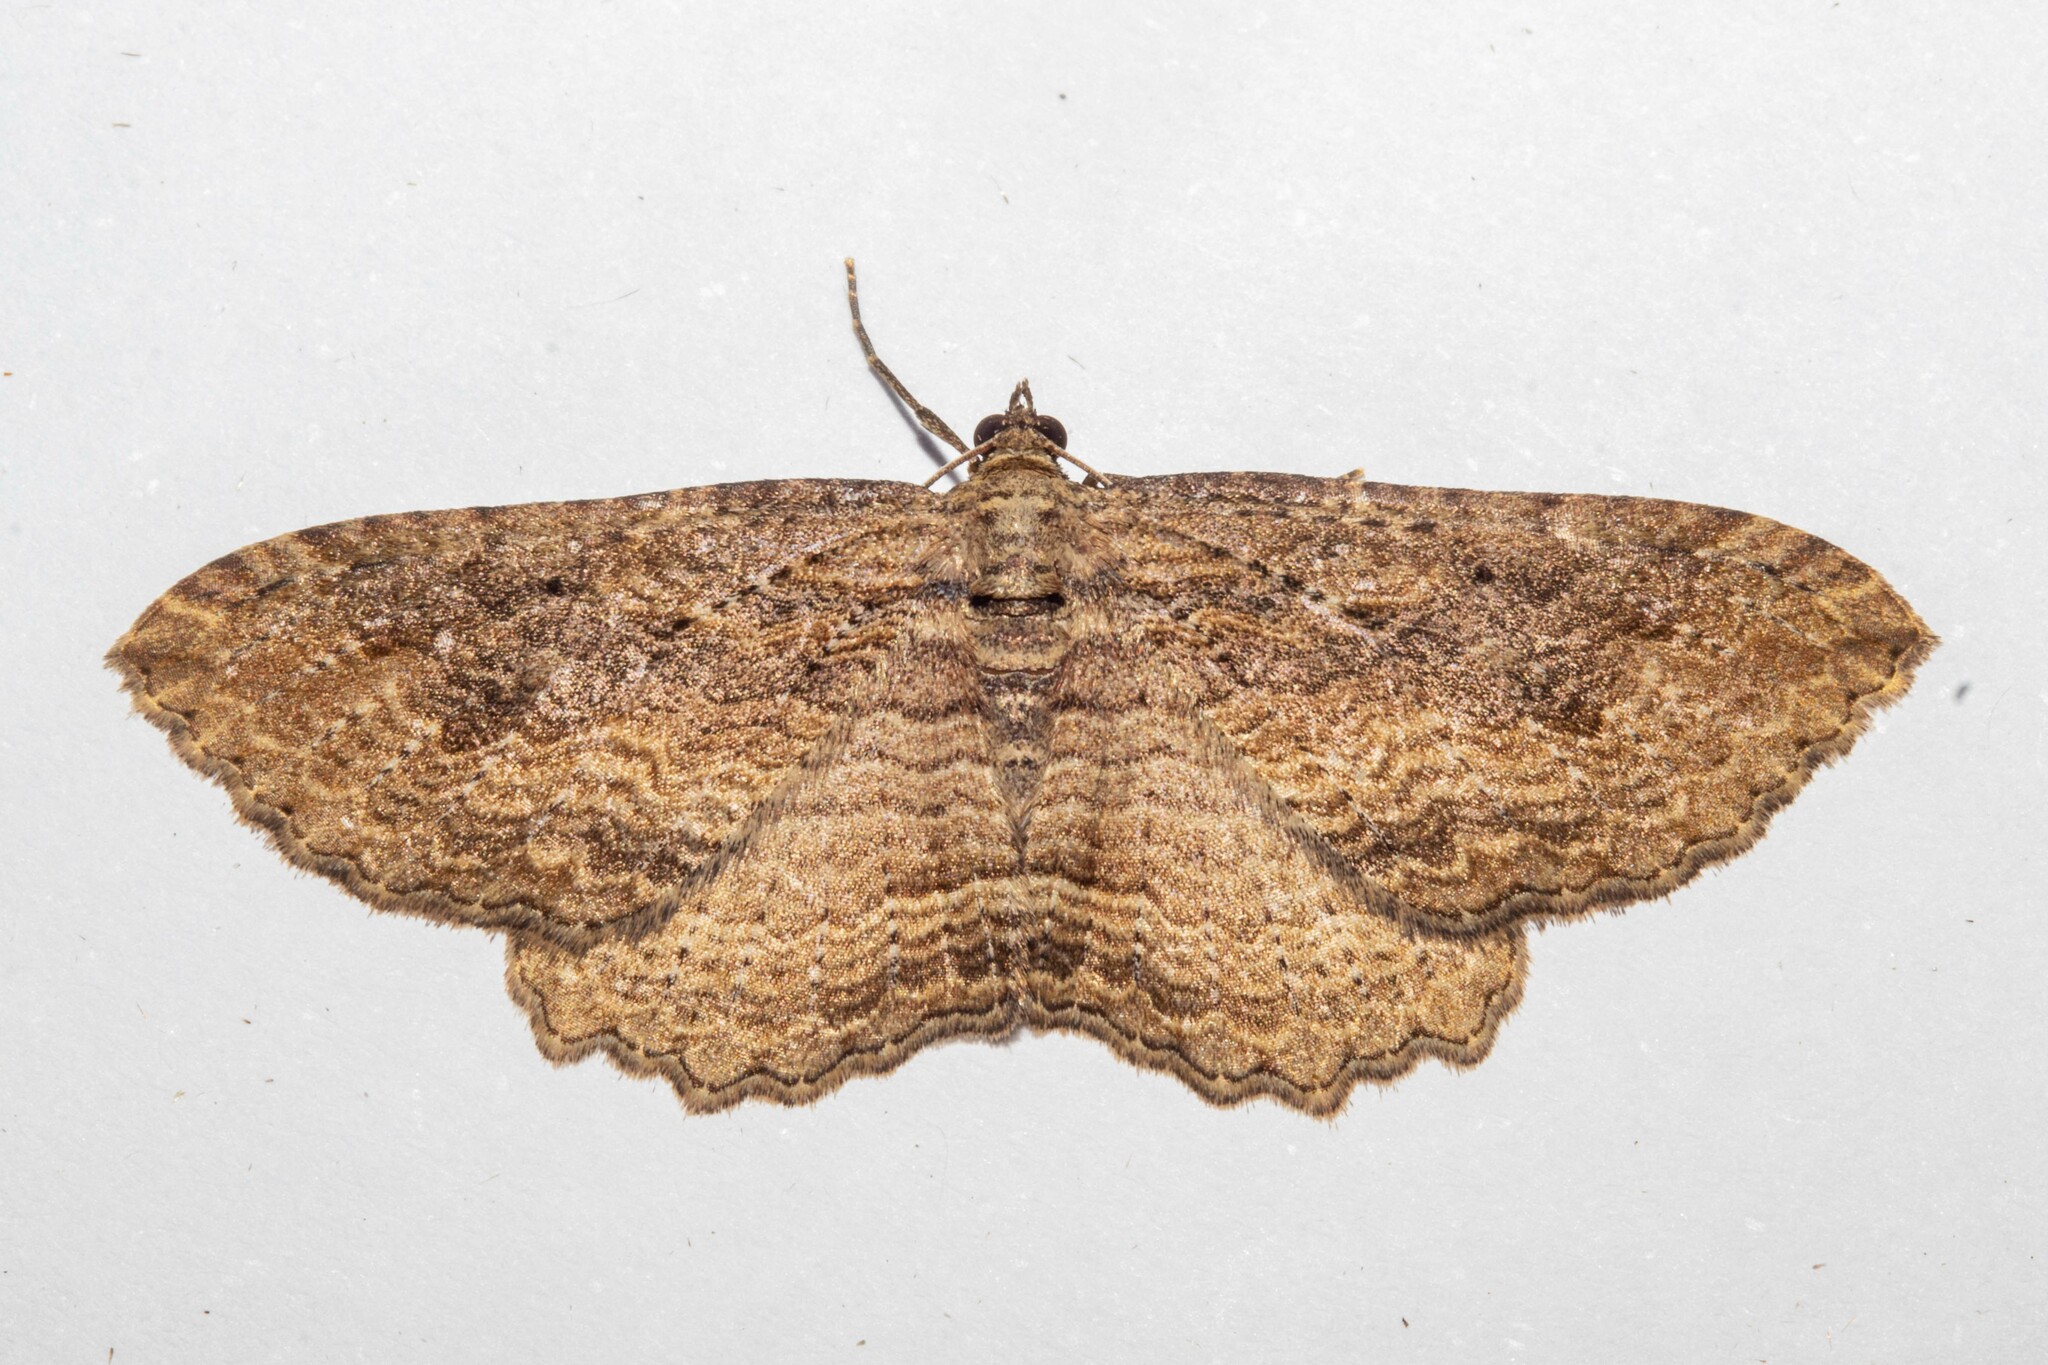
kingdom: Animalia
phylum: Arthropoda
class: Insecta
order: Lepidoptera
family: Geometridae
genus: Austrocidaria
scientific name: Austrocidaria gobiata
